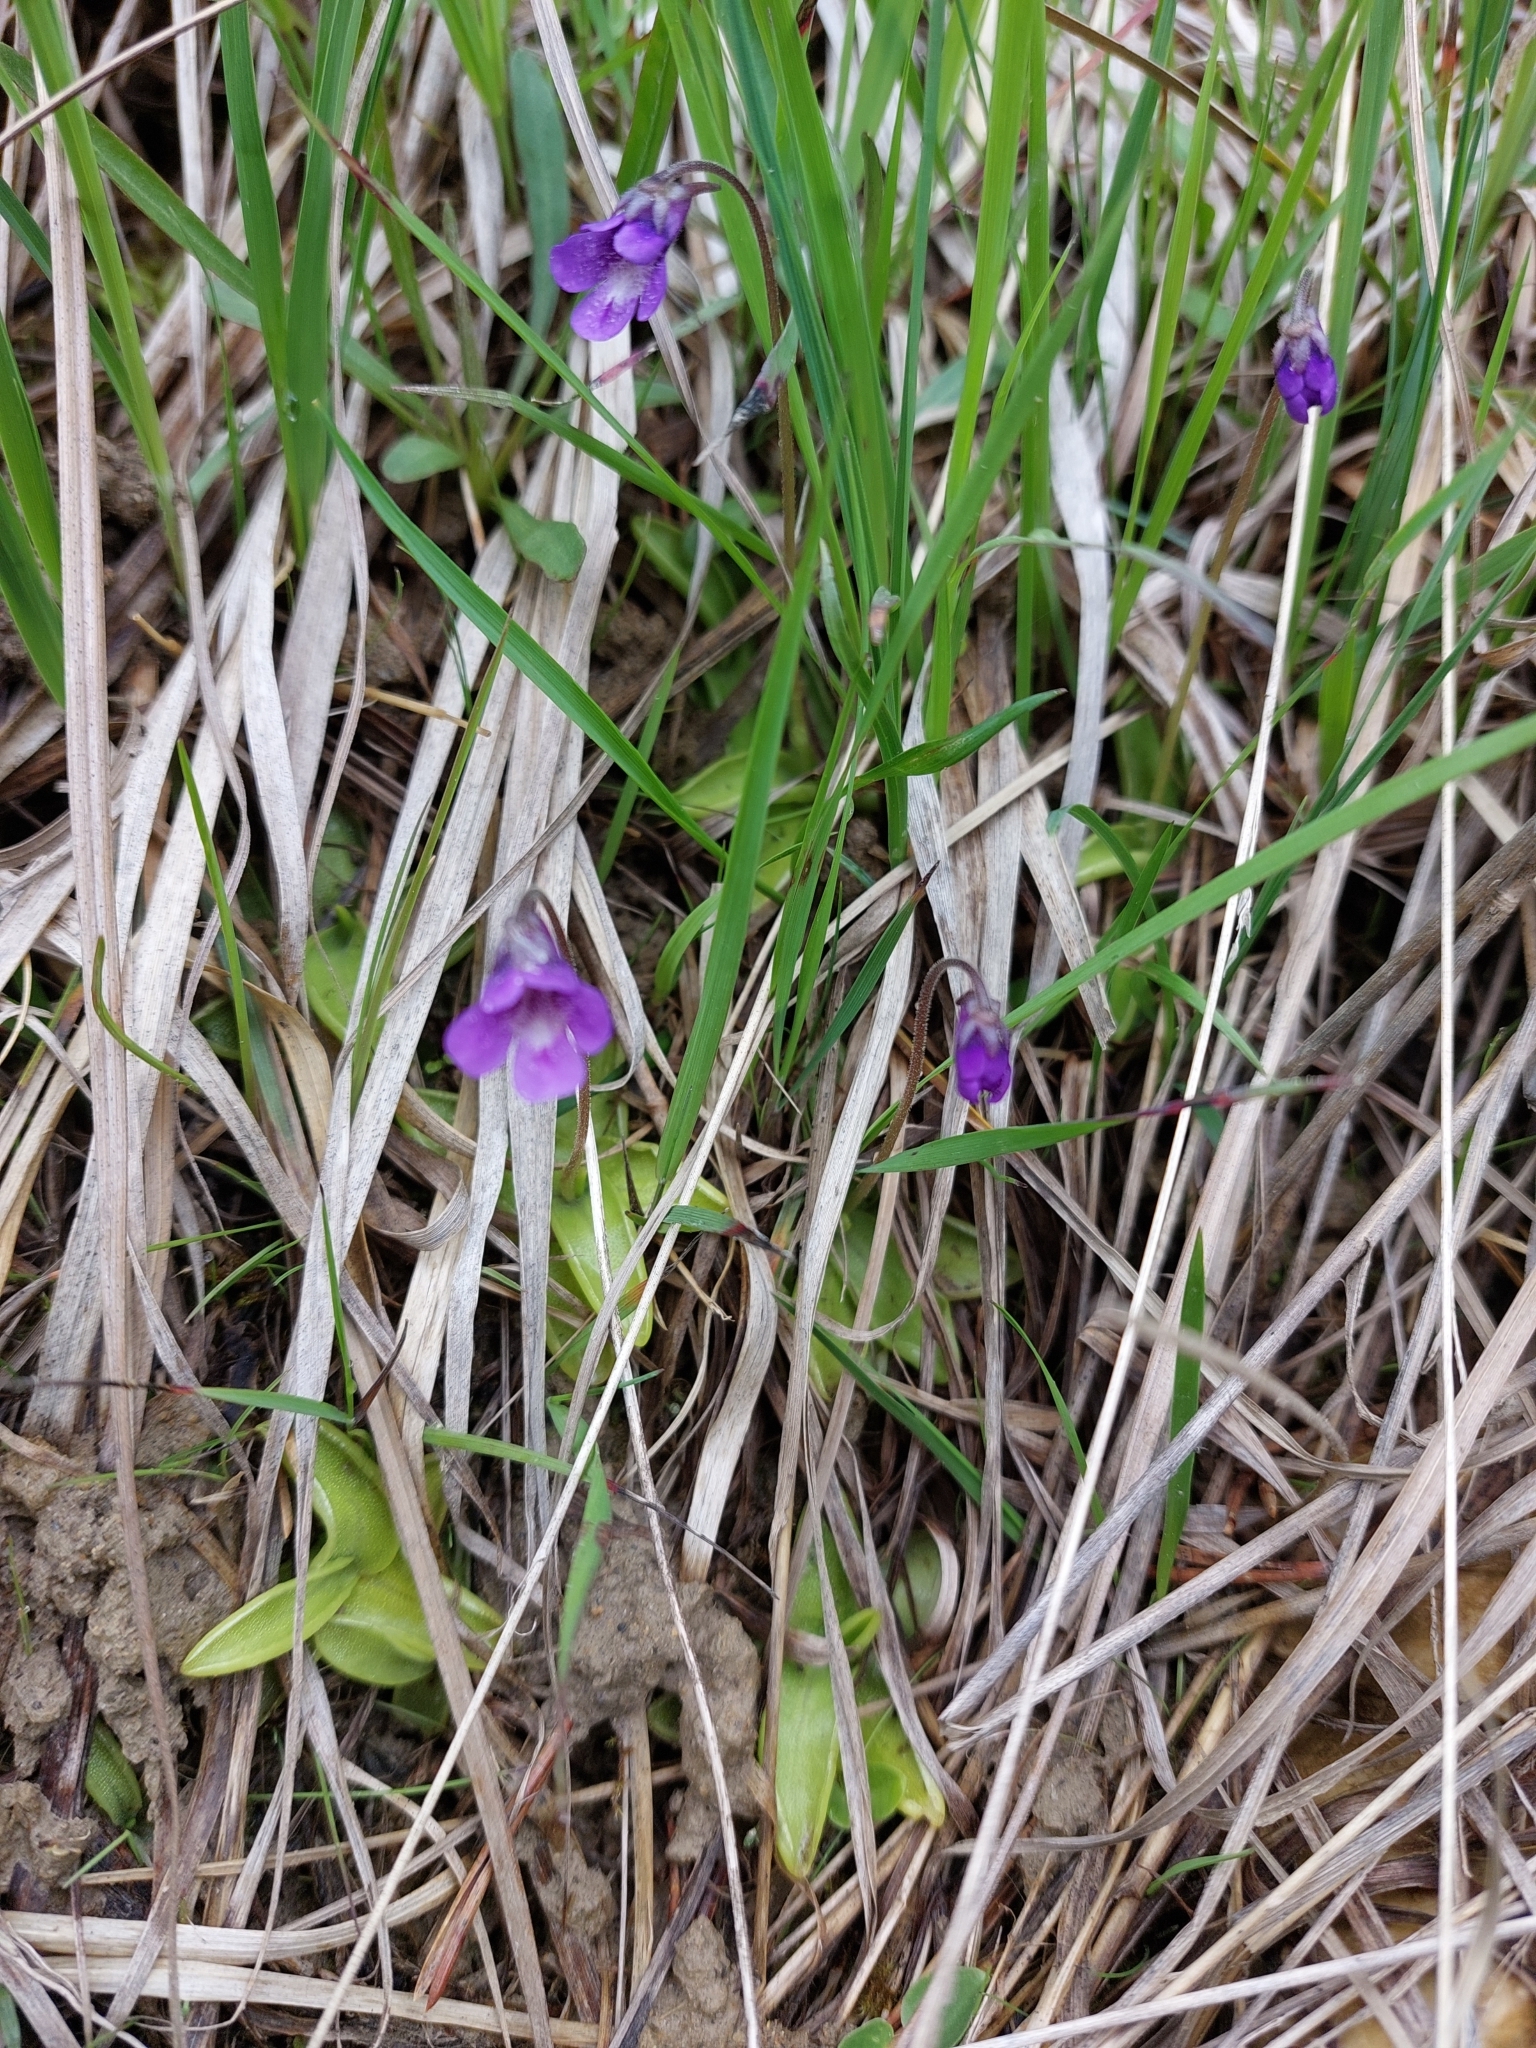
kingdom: Plantae
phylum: Tracheophyta
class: Magnoliopsida
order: Lamiales
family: Lentibulariaceae
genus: Pinguicula
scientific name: Pinguicula vulgaris
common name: Common butterwort
